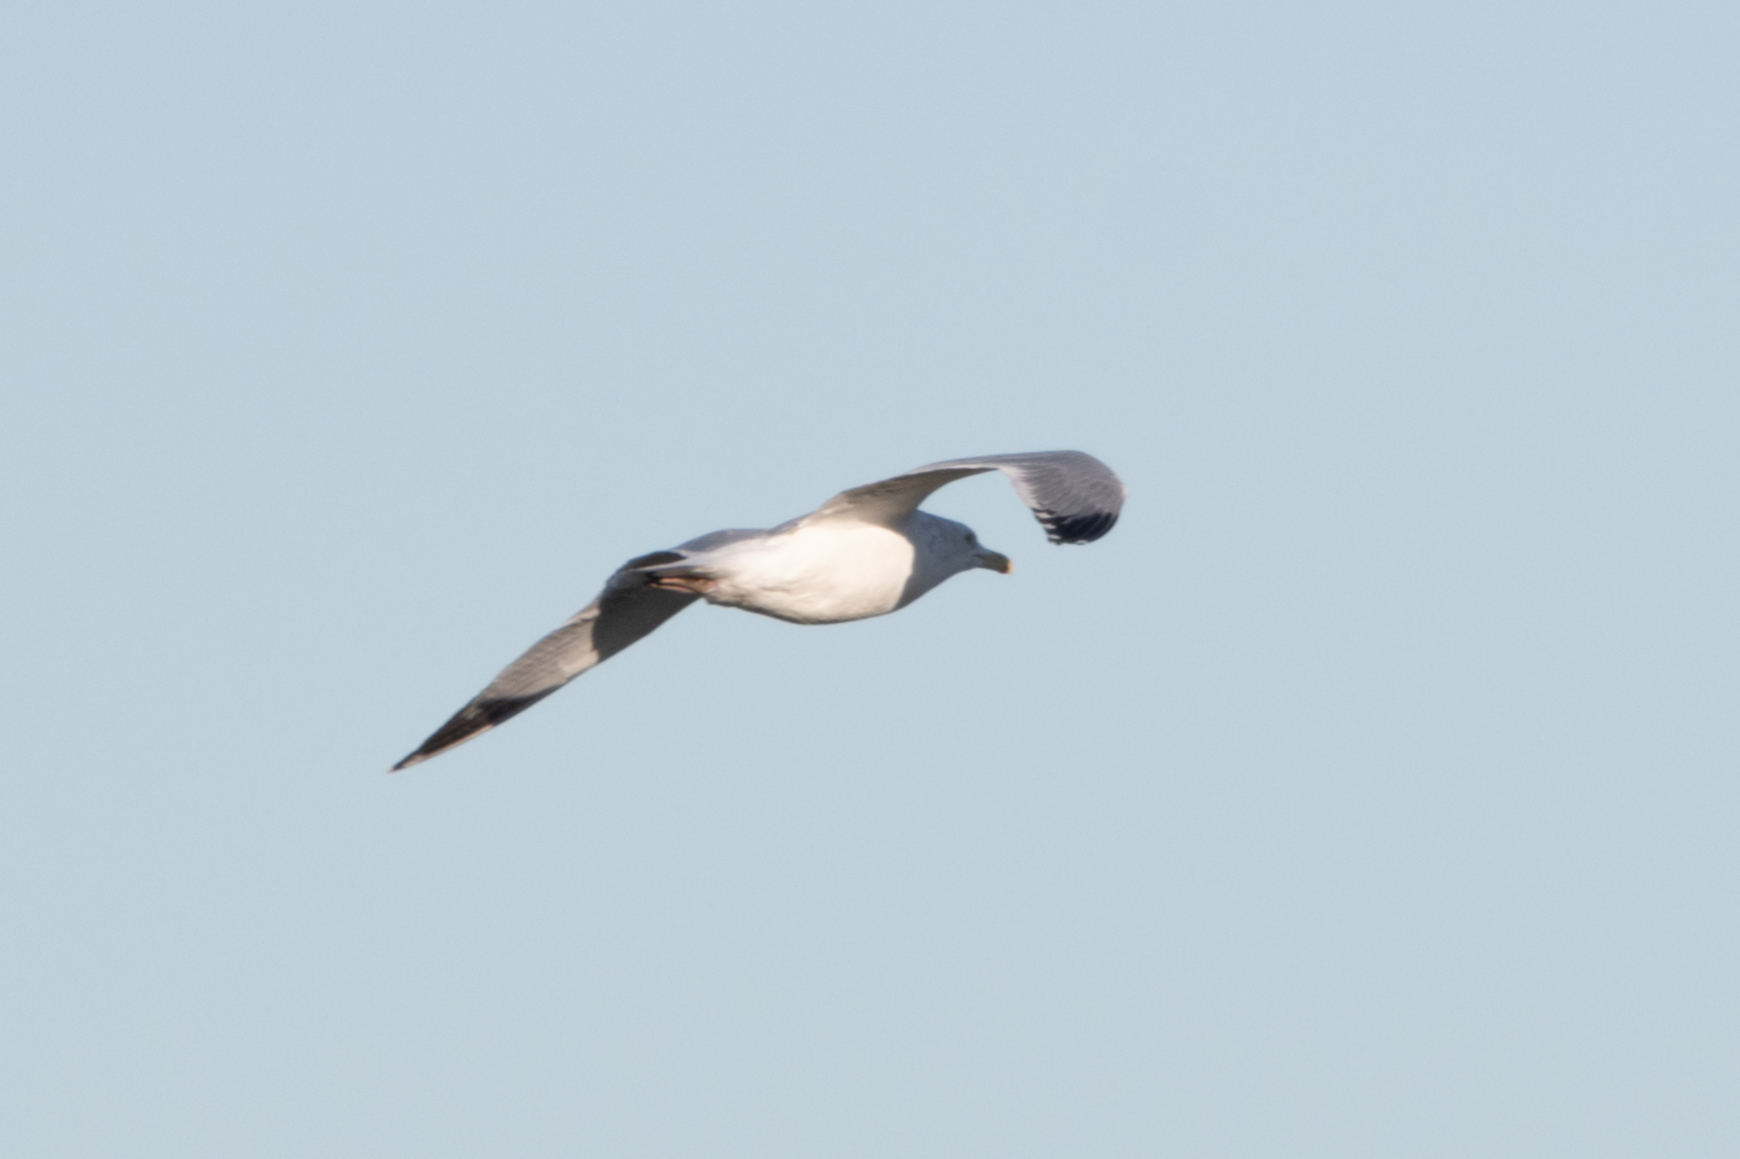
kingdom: Animalia
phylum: Chordata
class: Aves
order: Charadriiformes
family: Laridae
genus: Larus
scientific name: Larus argentatus
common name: Herring gull
